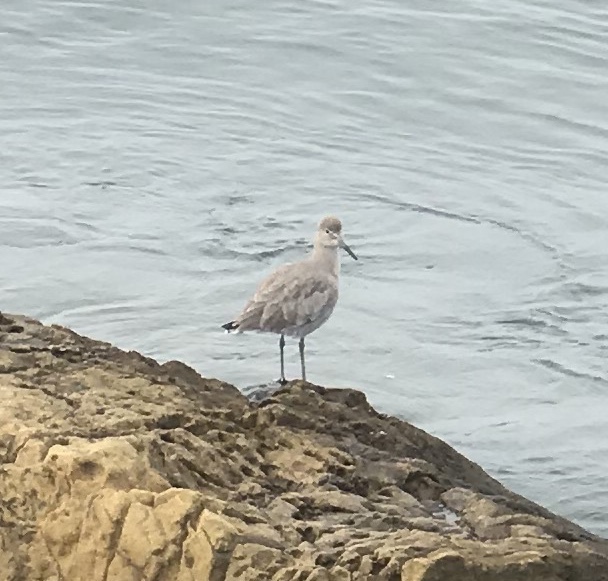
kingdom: Animalia
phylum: Chordata
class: Aves
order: Charadriiformes
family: Scolopacidae
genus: Tringa
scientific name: Tringa semipalmata
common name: Willet
